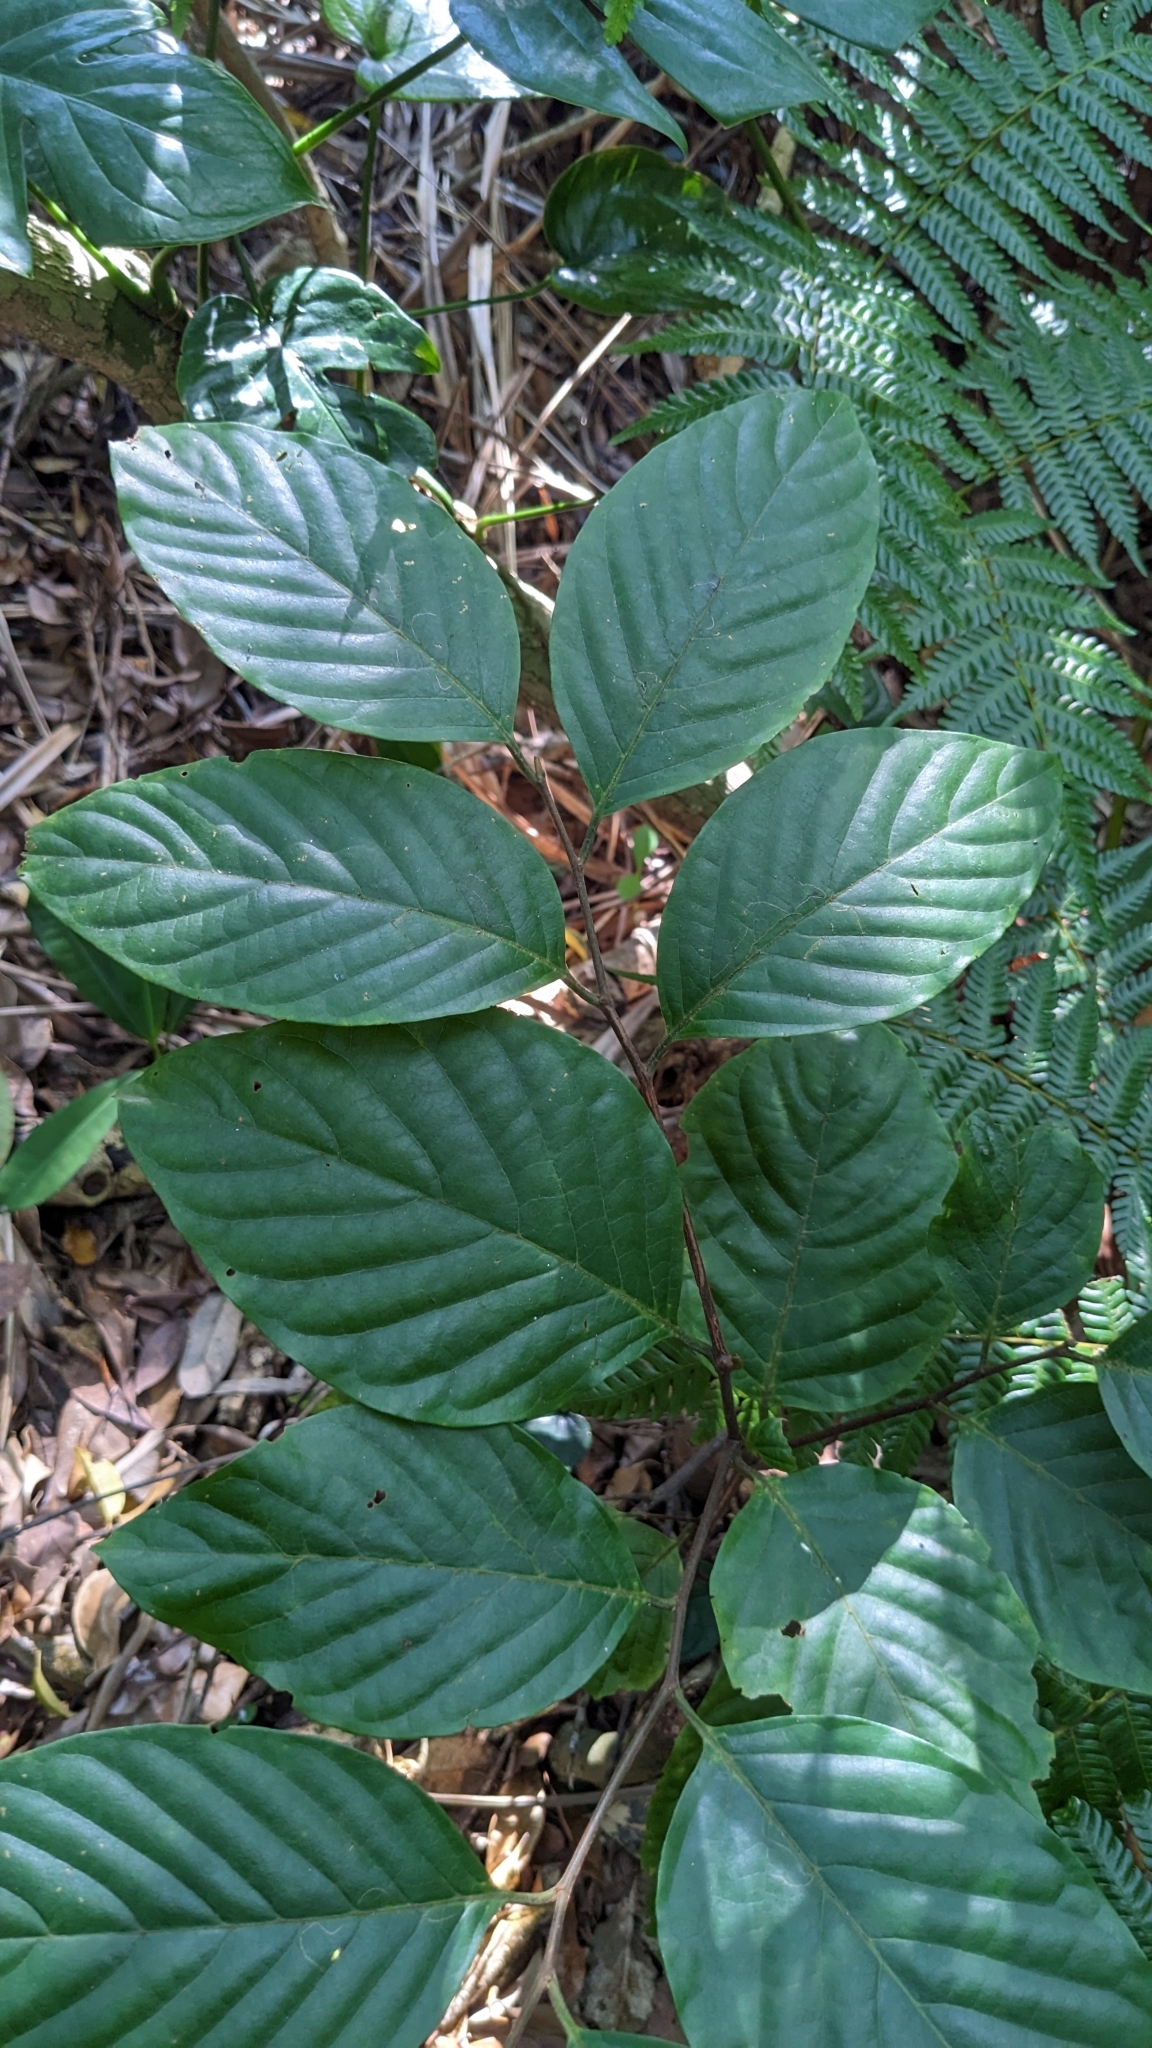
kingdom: Plantae
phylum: Tracheophyta
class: Magnoliopsida
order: Rosales
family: Rosaceae
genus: Prunus
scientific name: Prunus grisea
